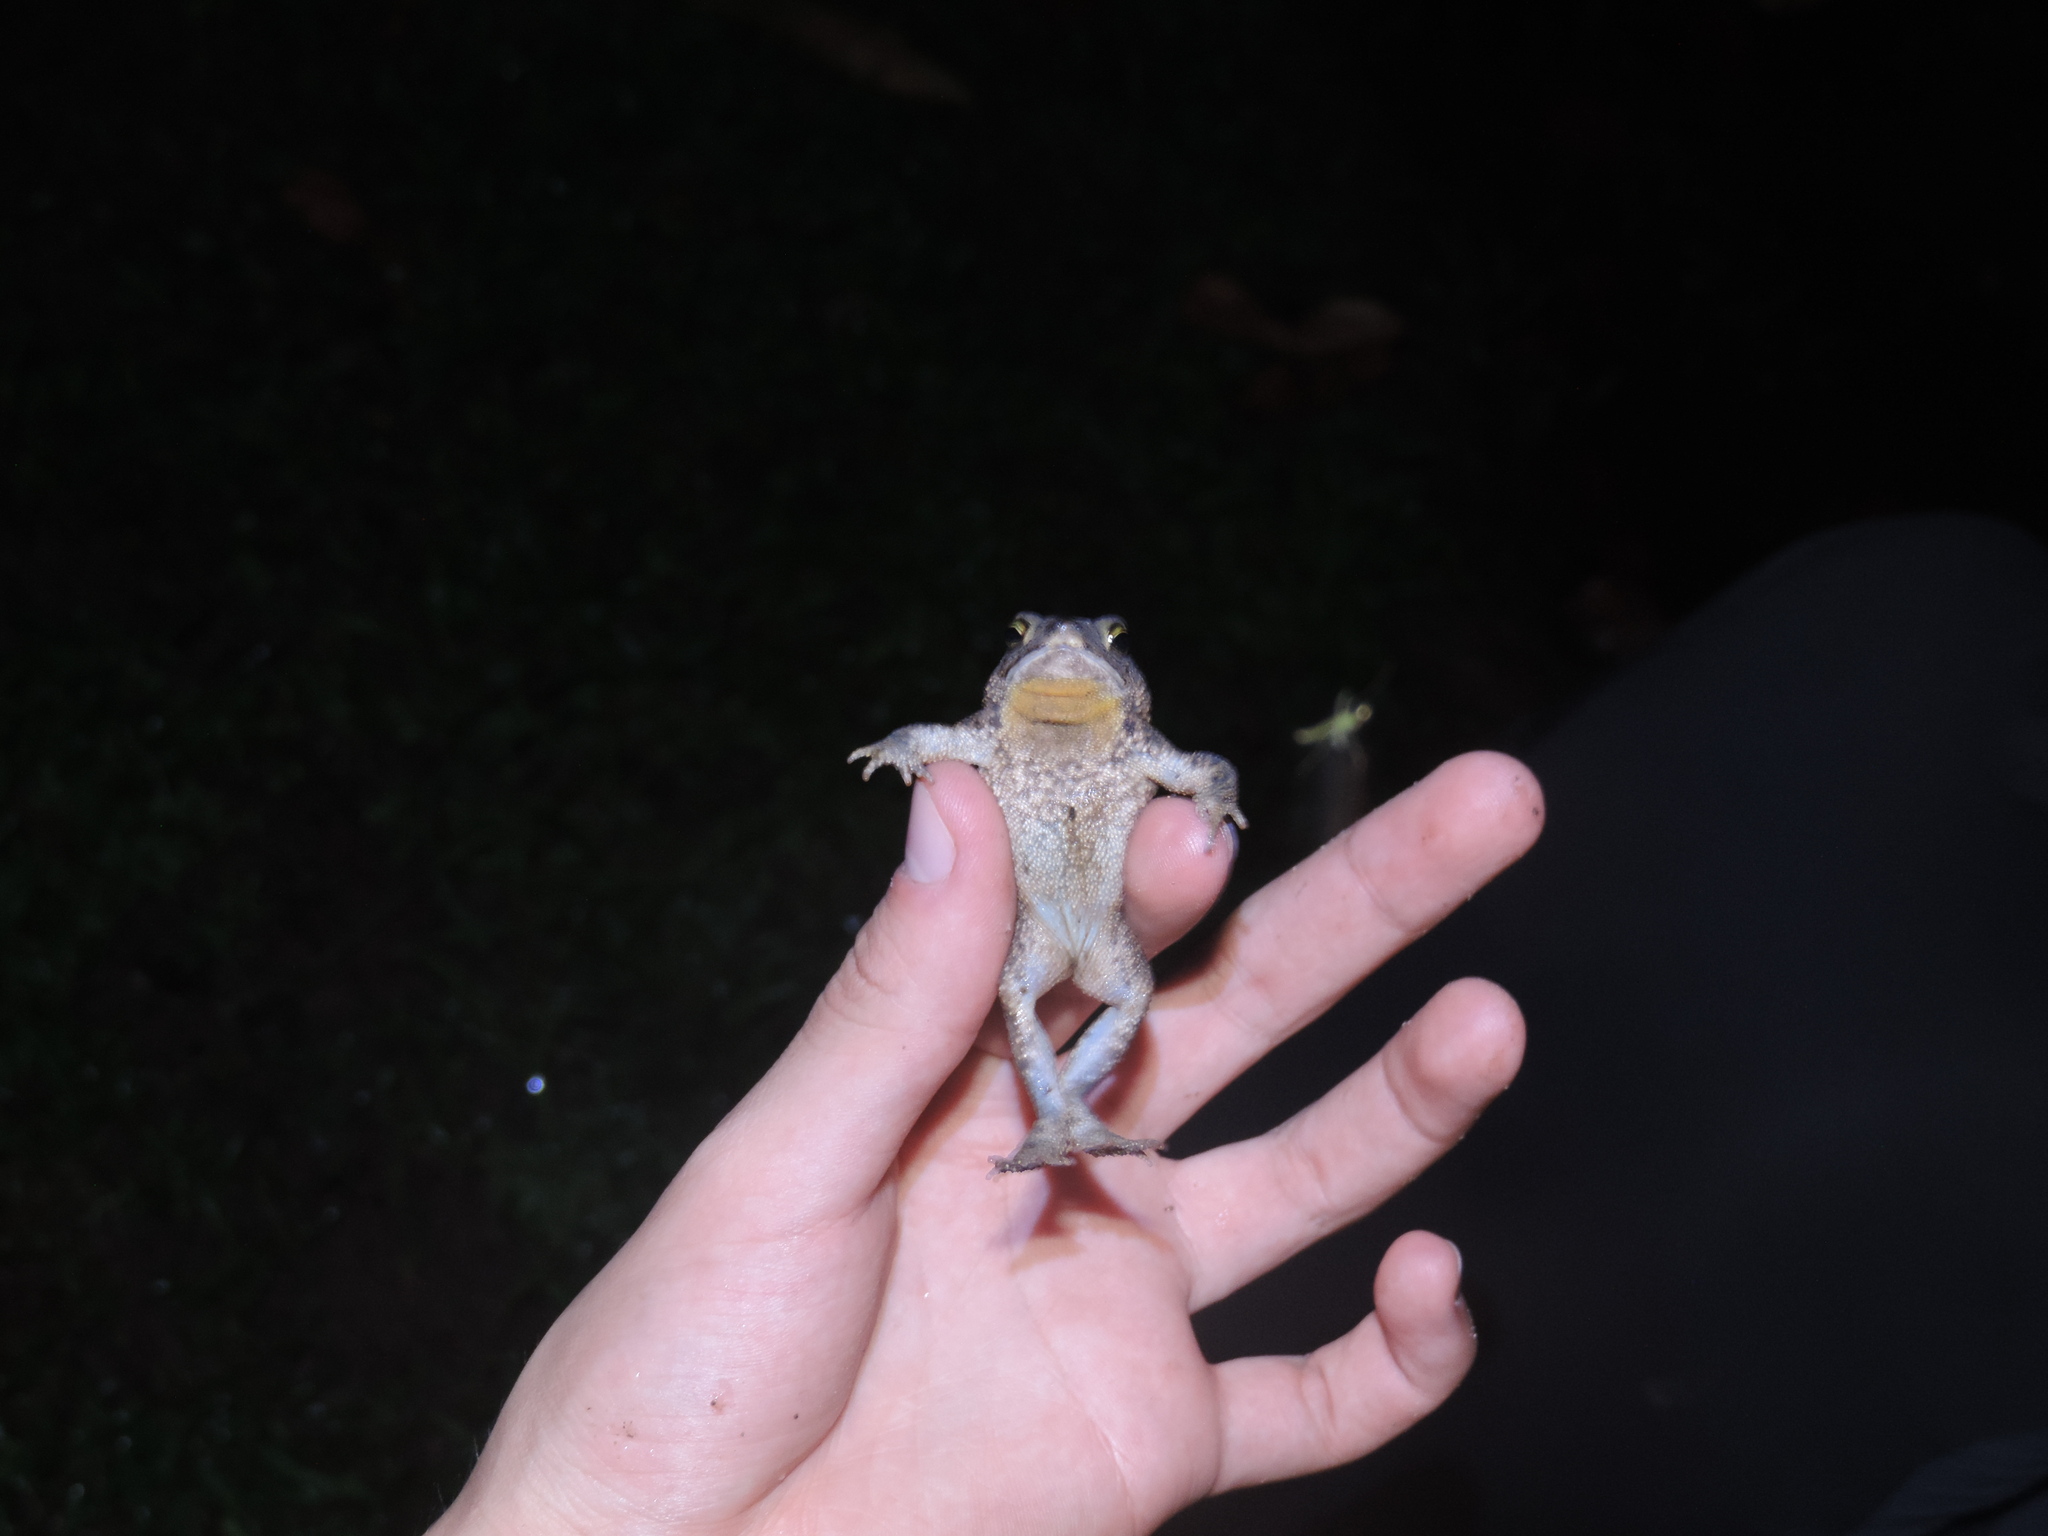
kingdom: Animalia
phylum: Chordata
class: Amphibia
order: Anura
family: Bufonidae
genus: Rhinella
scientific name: Rhinella humboldti
